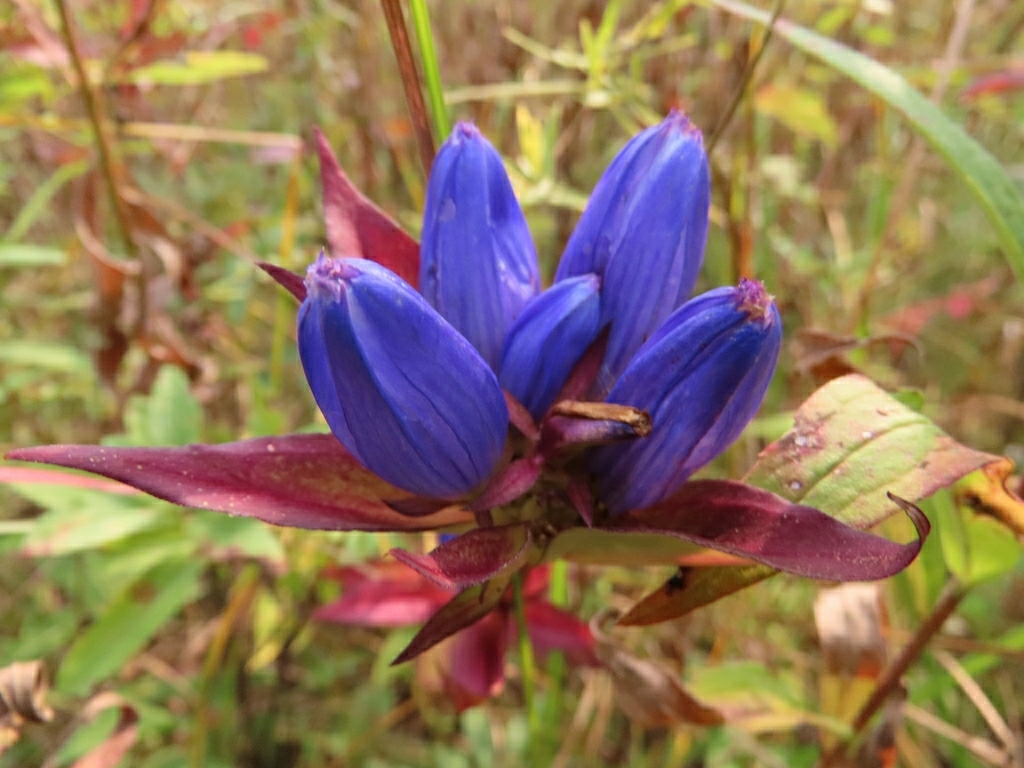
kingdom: Plantae
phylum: Tracheophyta
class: Magnoliopsida
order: Gentianales
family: Gentianaceae
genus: Gentiana
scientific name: Gentiana andrewsii
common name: Bottle gentian
